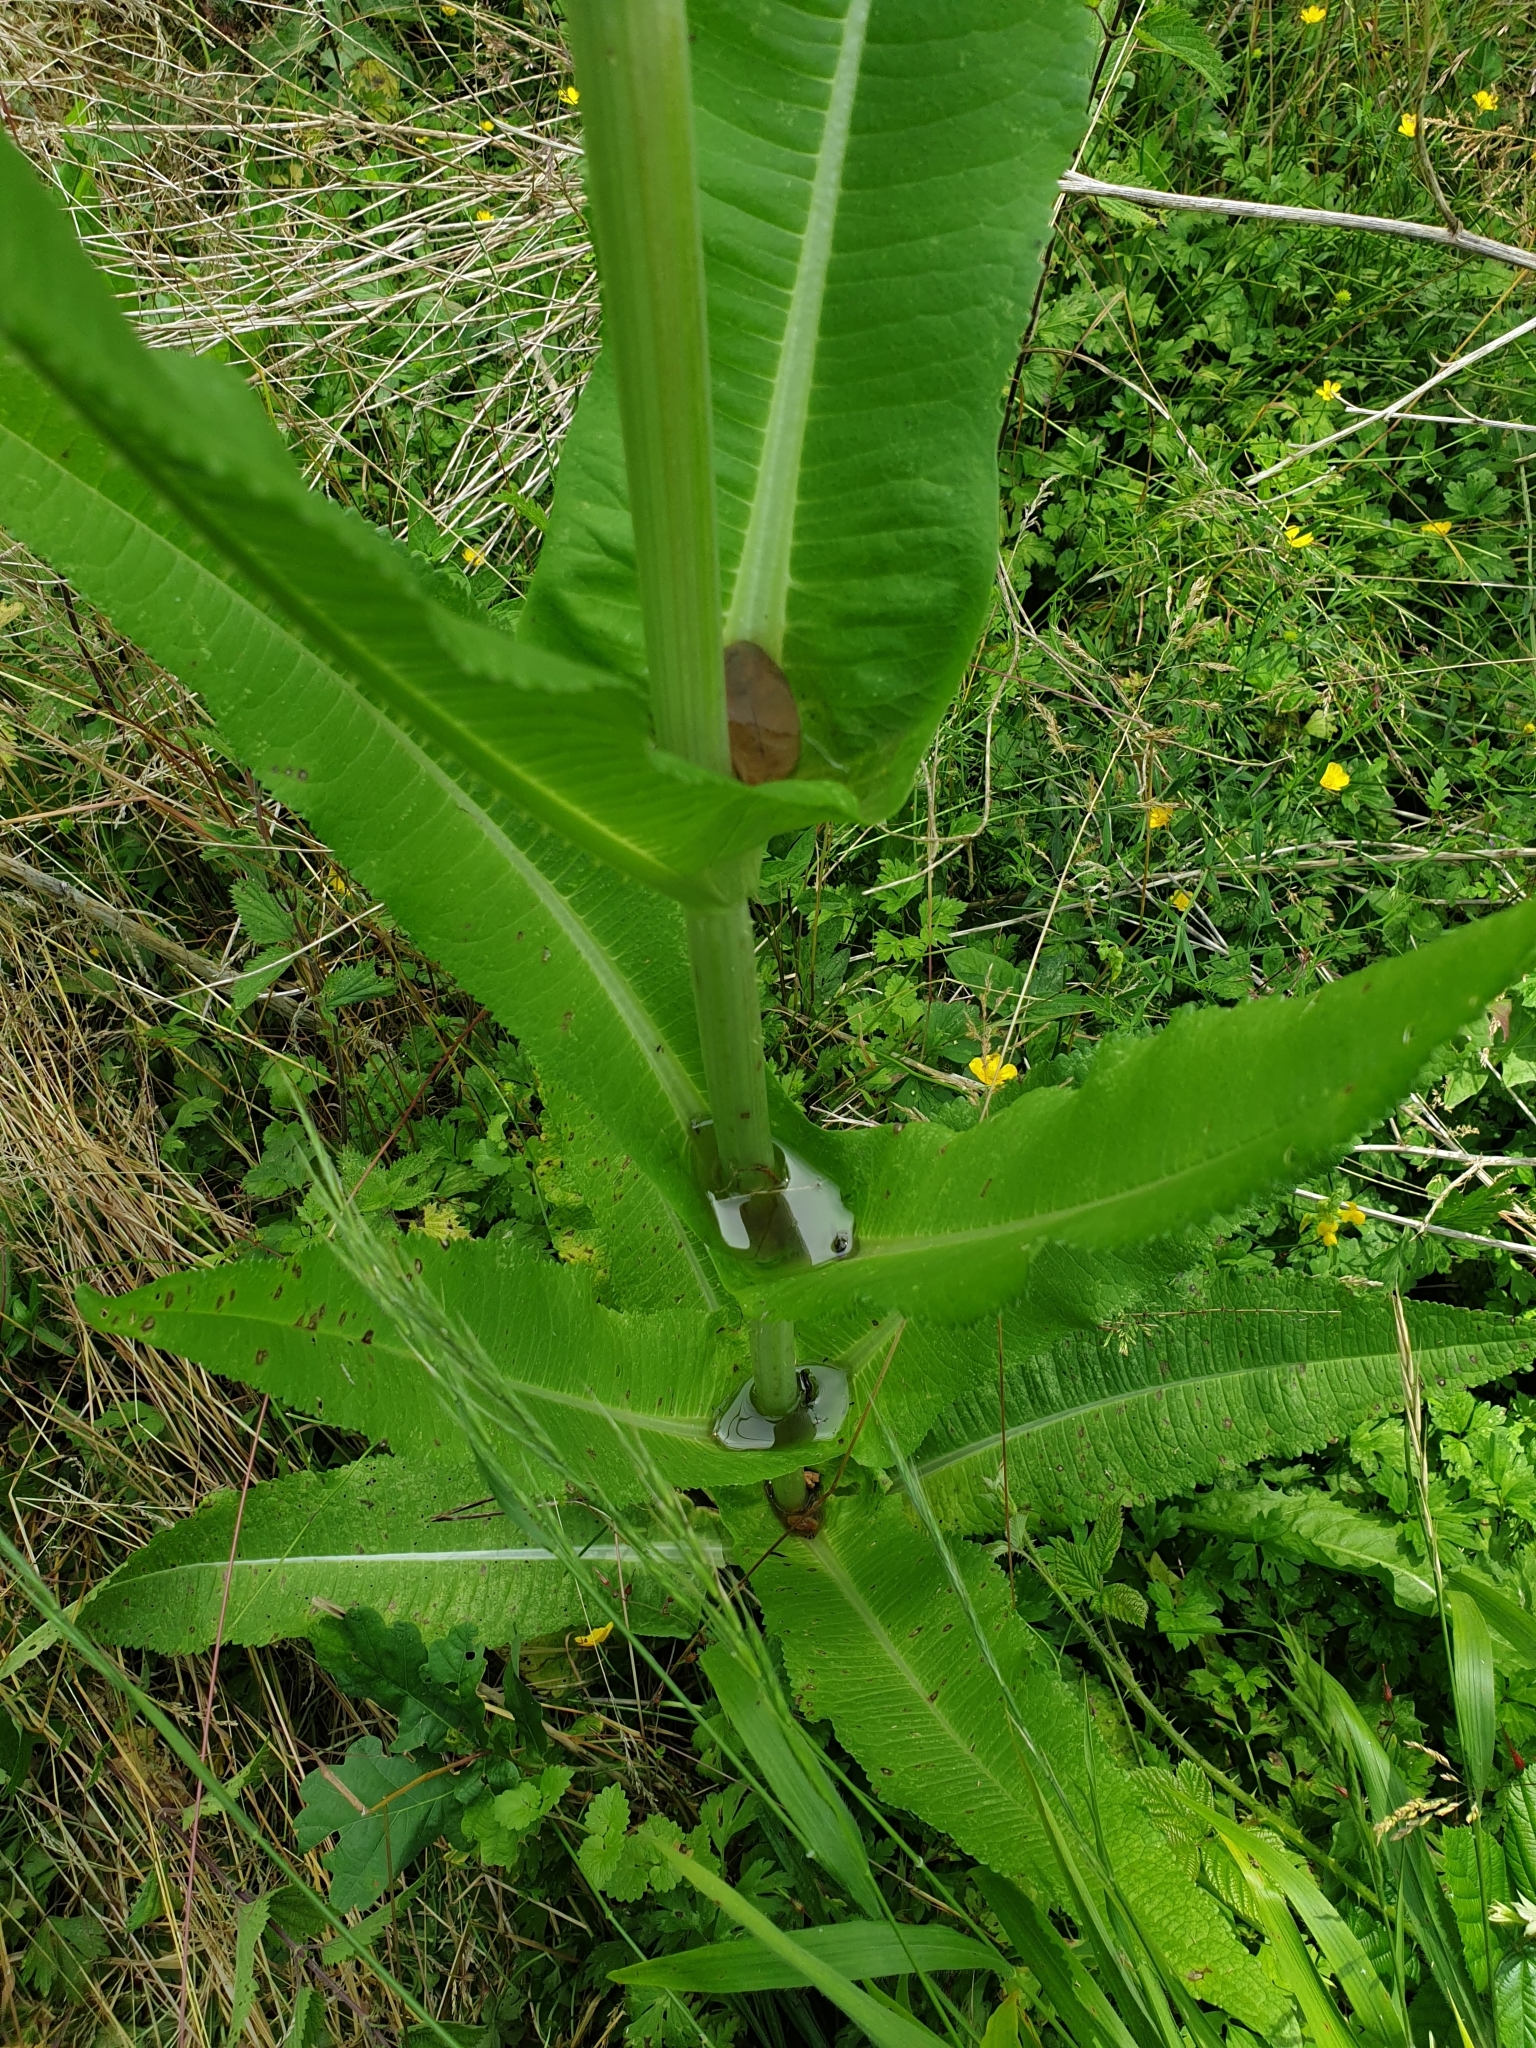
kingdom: Plantae
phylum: Tracheophyta
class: Magnoliopsida
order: Dipsacales
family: Caprifoliaceae
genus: Dipsacus
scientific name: Dipsacus fullonum
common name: Teasel
